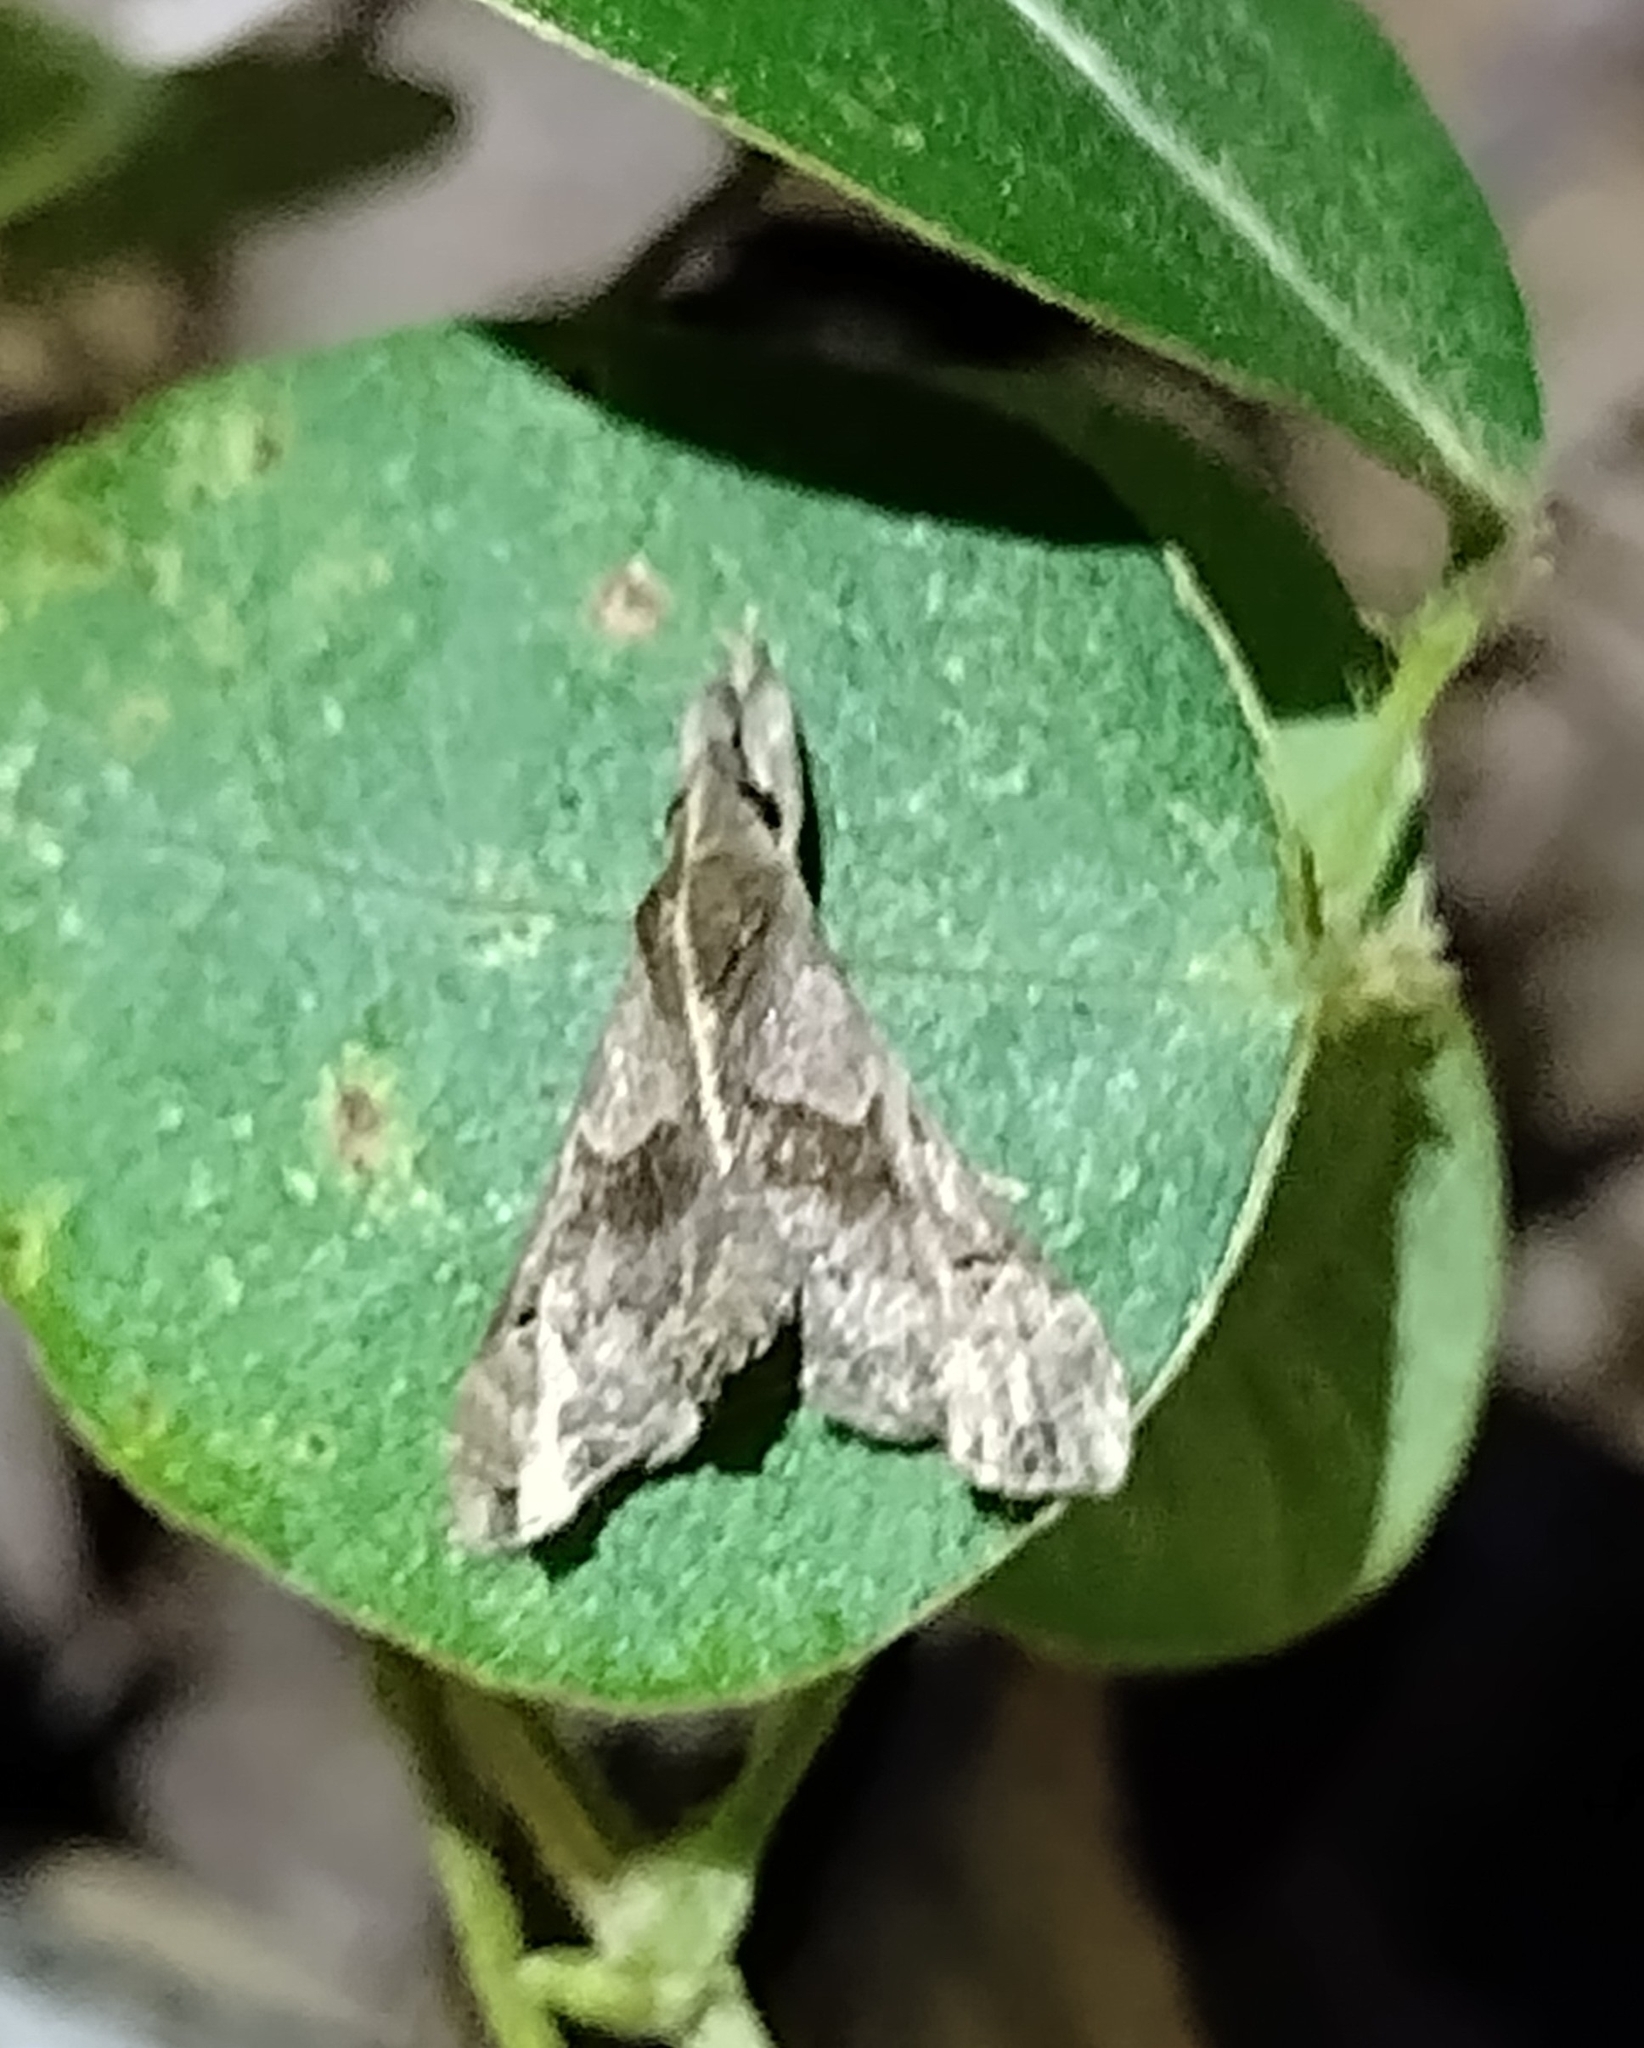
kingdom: Animalia
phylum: Arthropoda
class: Insecta
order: Lepidoptera
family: Erebidae
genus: Palthis
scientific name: Palthis asopialis
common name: Faint-spotted palthis moth
